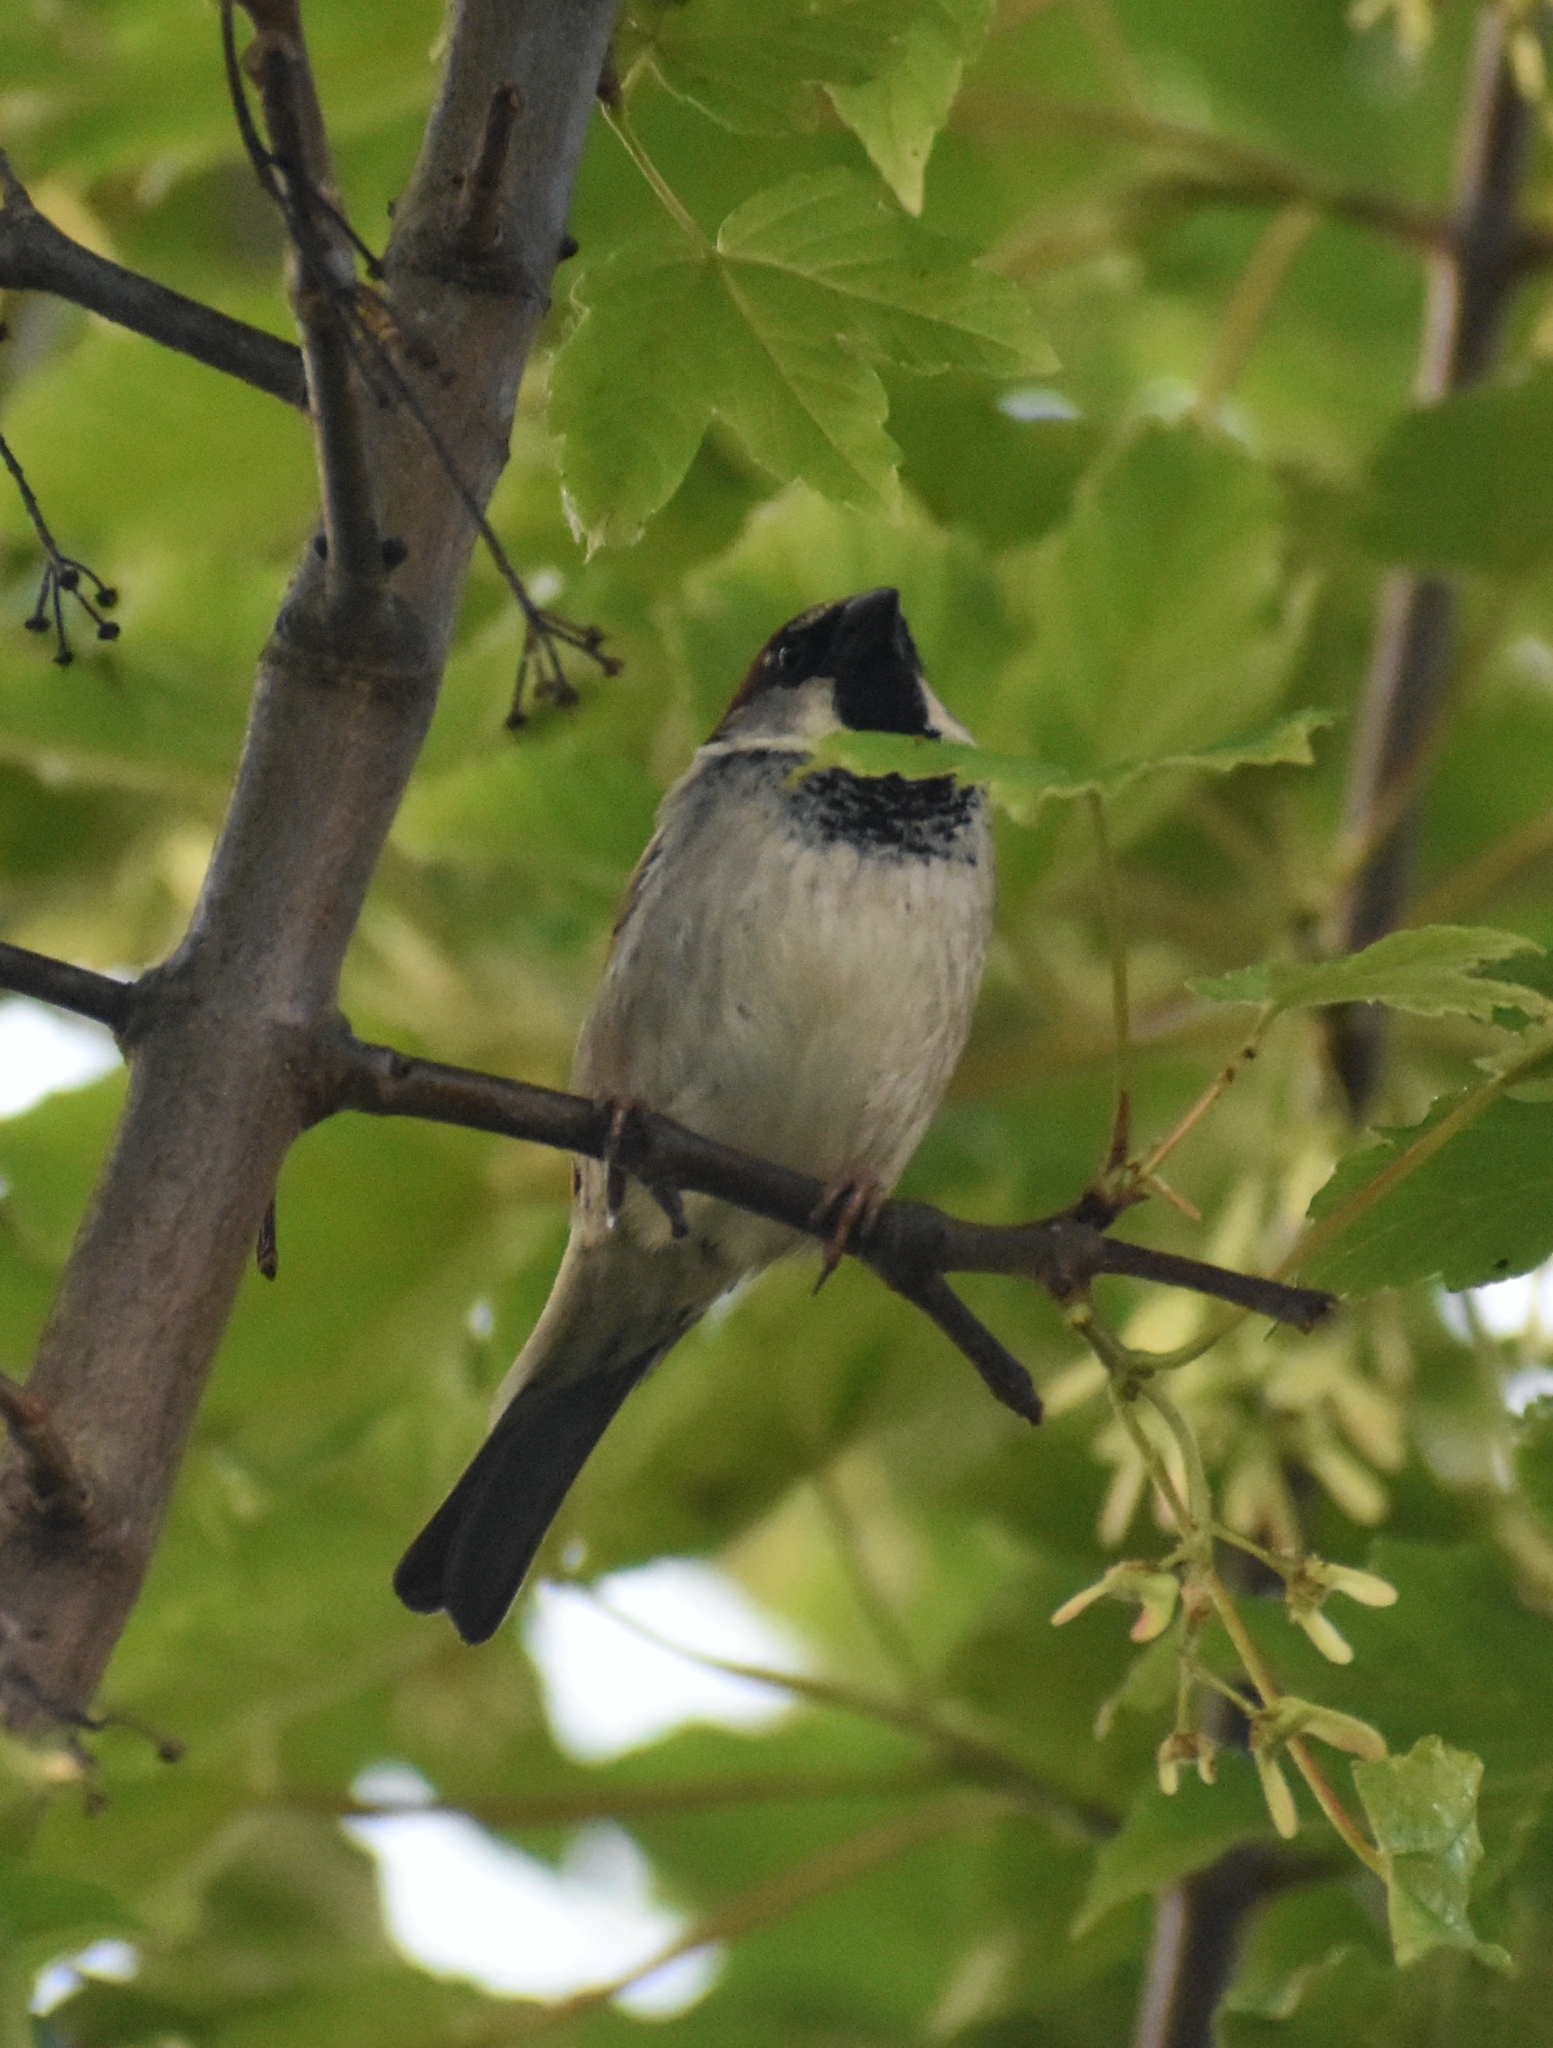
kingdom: Animalia
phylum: Chordata
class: Aves
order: Passeriformes
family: Passeridae
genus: Passer
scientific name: Passer domesticus
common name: House sparrow
